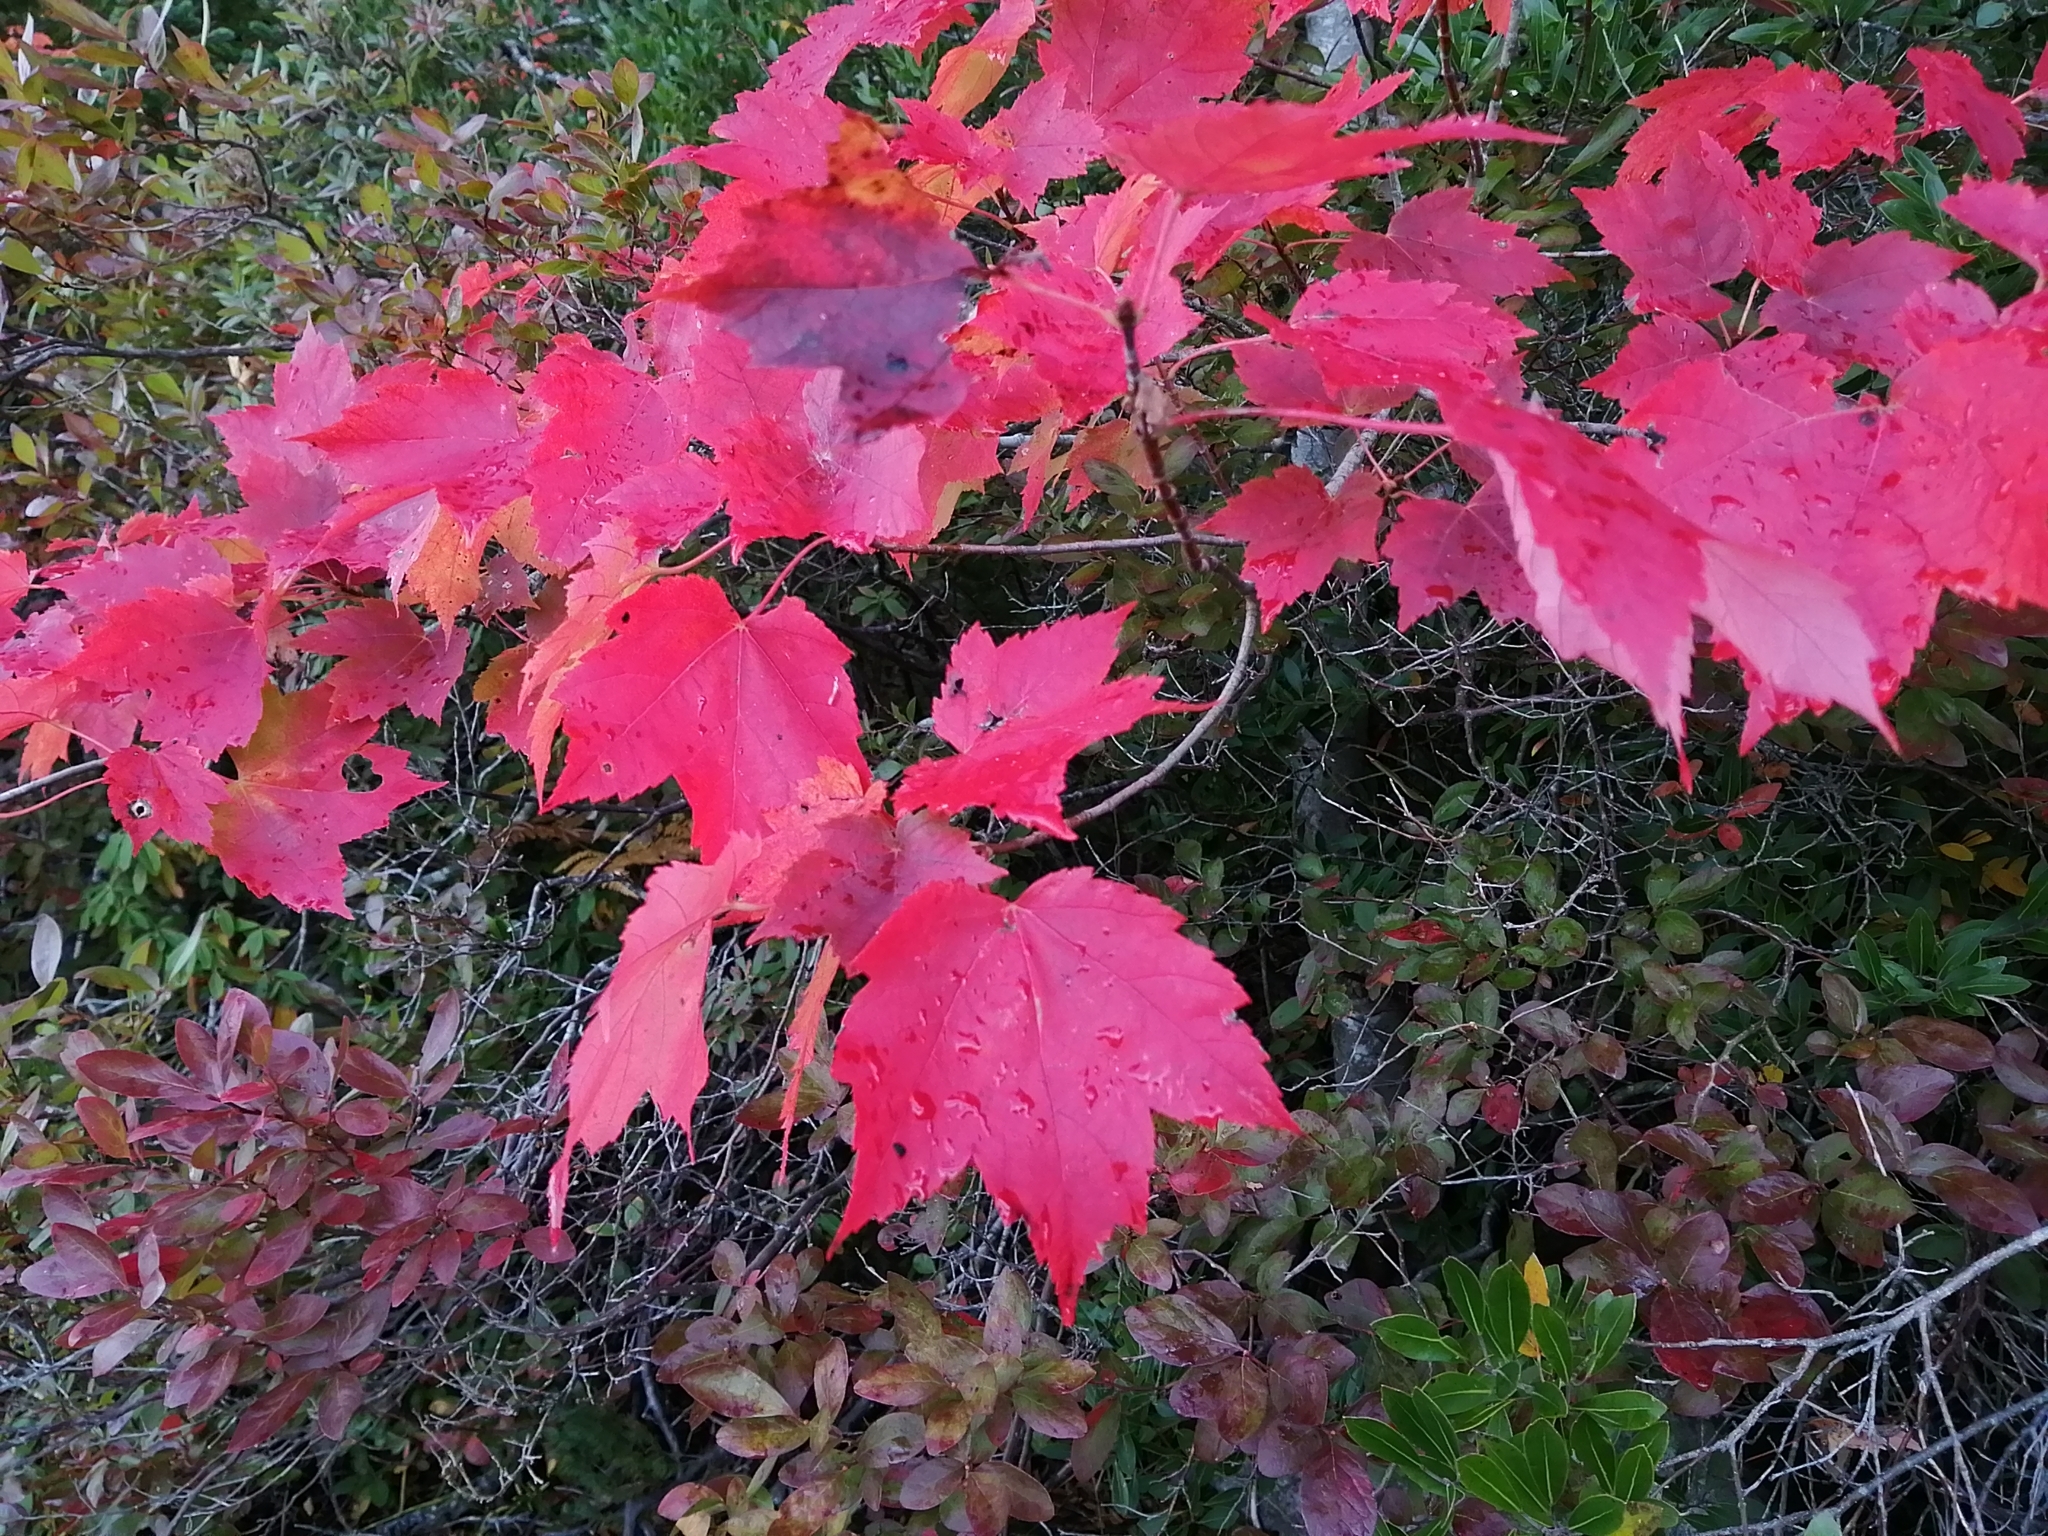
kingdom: Plantae
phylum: Tracheophyta
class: Magnoliopsida
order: Sapindales
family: Sapindaceae
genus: Acer
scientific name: Acer rubrum
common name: Red maple
